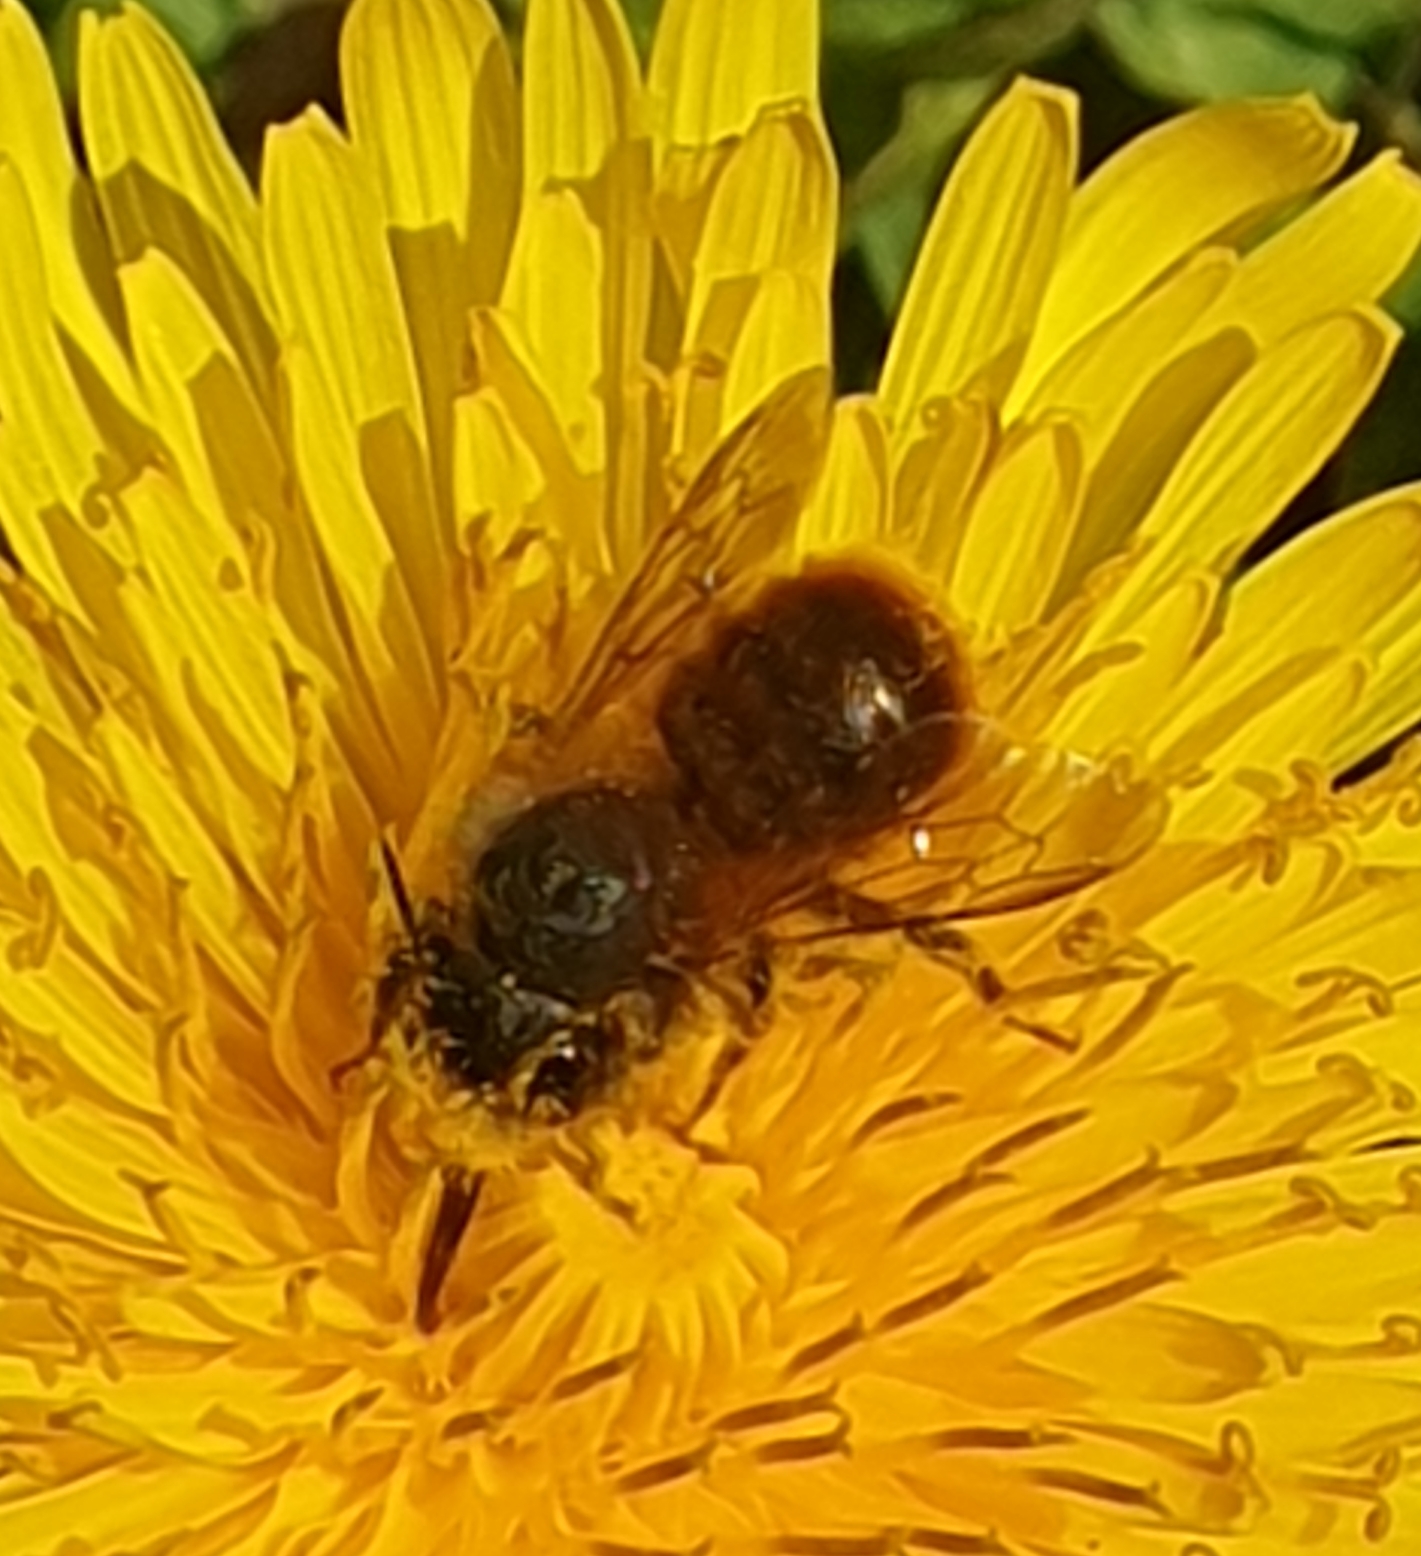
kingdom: Animalia
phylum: Arthropoda
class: Insecta
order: Hymenoptera
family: Megachilidae
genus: Osmia
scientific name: Osmia bicornis
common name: Red mason bee
